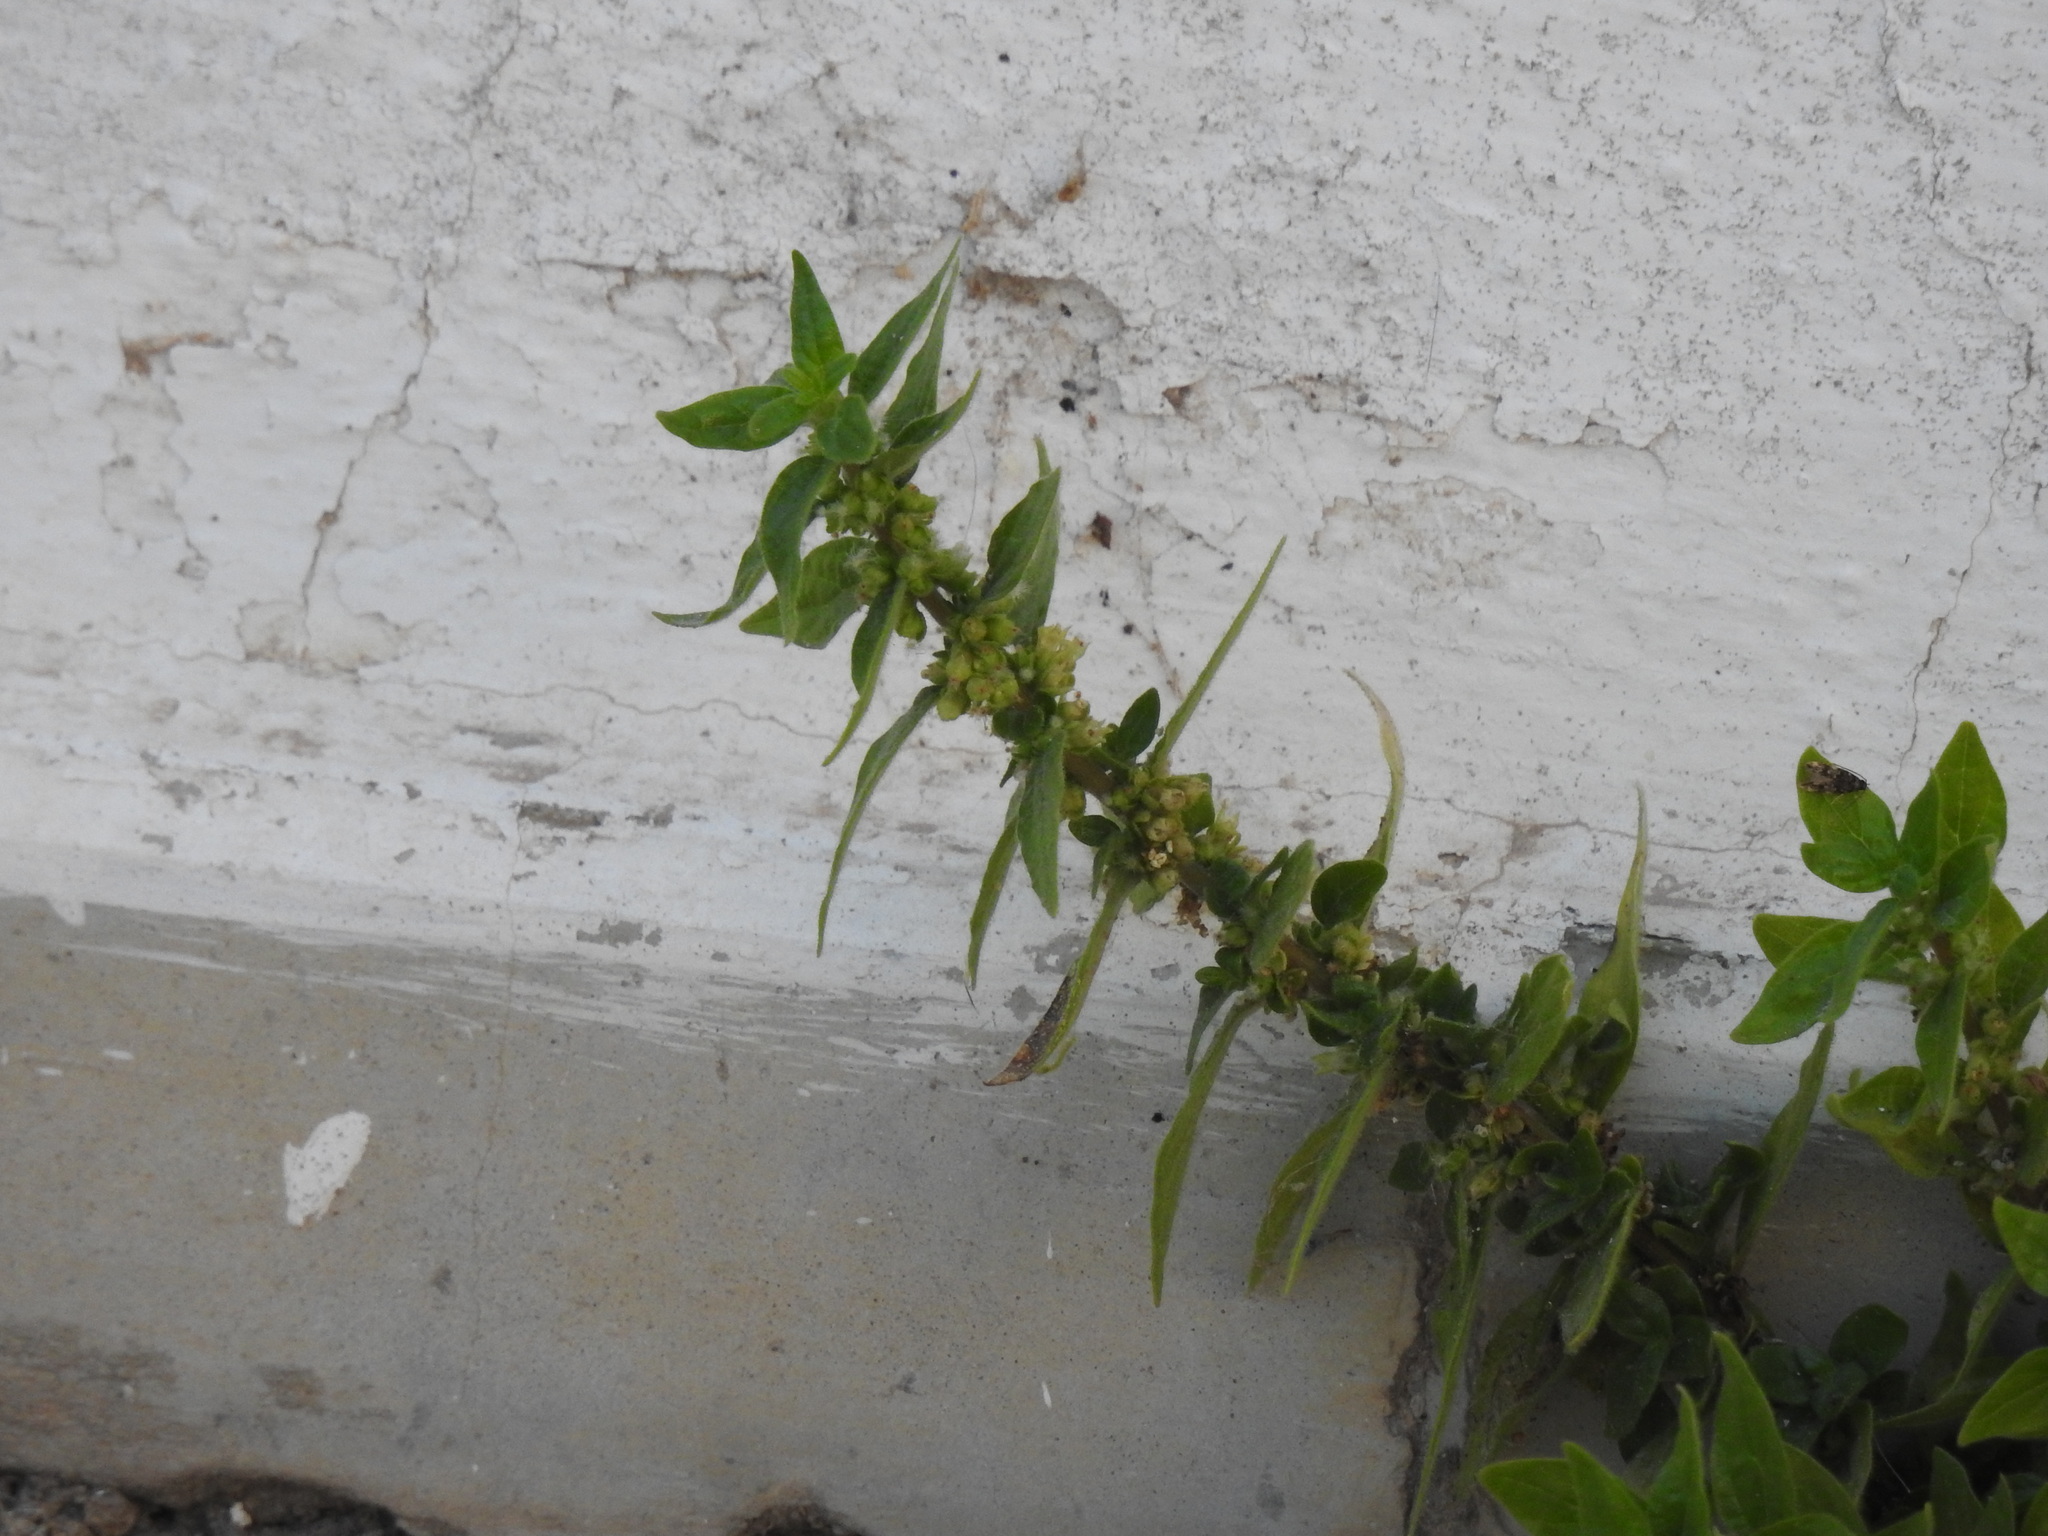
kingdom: Plantae
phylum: Tracheophyta
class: Magnoliopsida
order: Rosales
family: Urticaceae
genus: Parietaria
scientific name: Parietaria judaica
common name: Pellitory-of-the-wall
